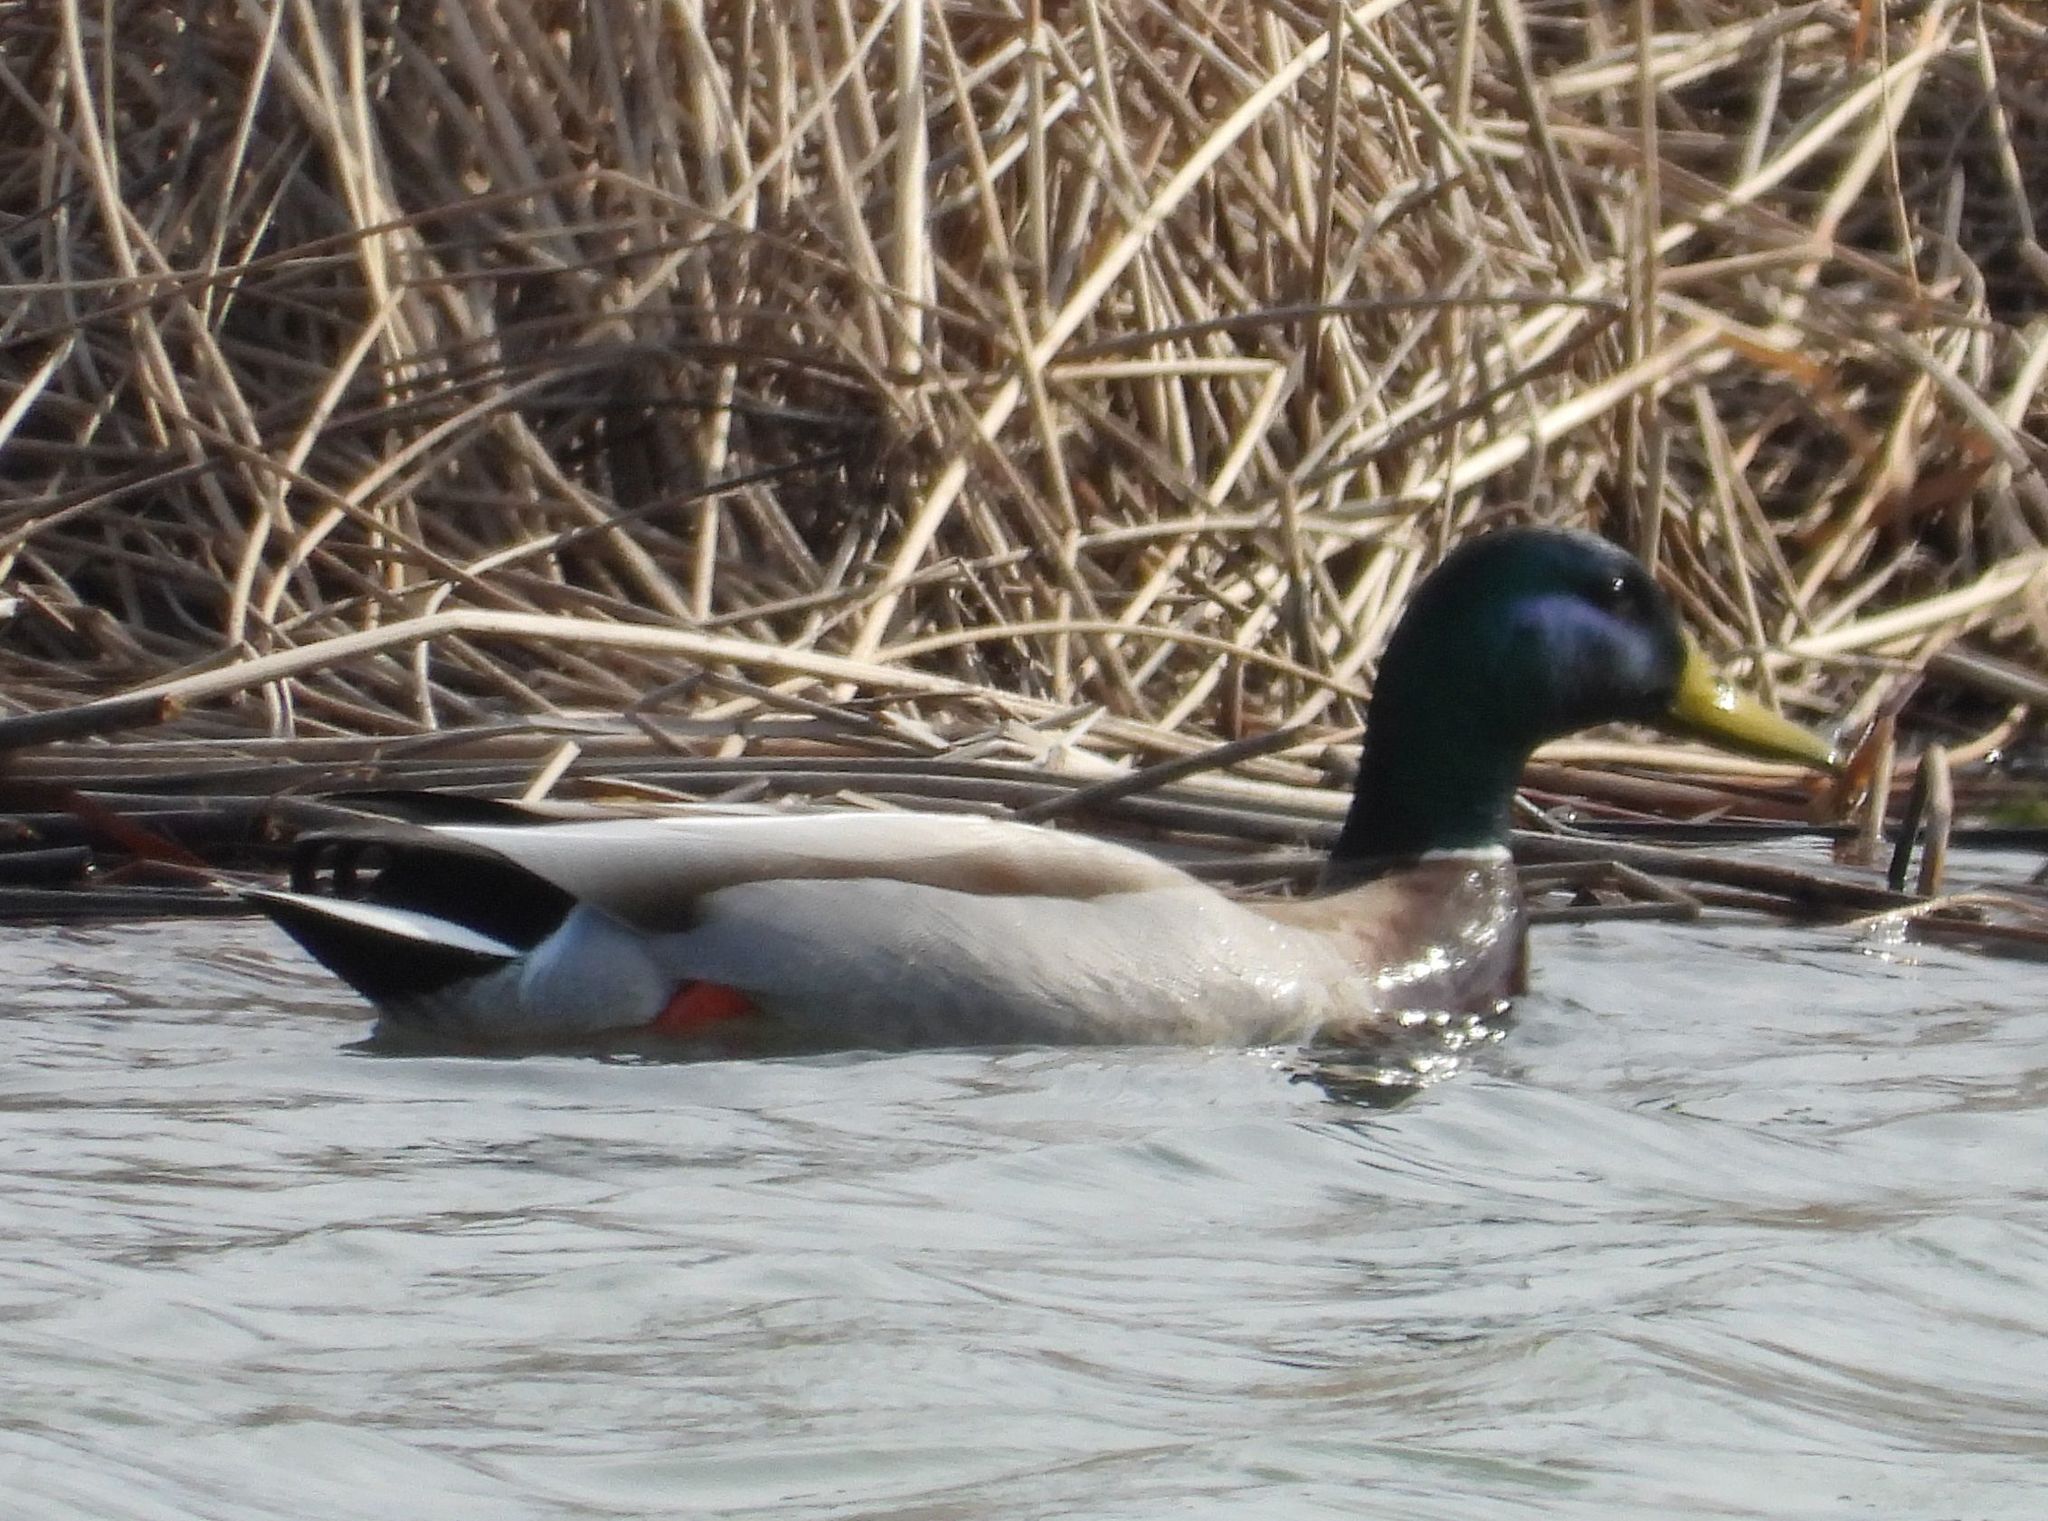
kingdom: Animalia
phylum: Chordata
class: Aves
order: Anseriformes
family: Anatidae
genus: Anas
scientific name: Anas platyrhynchos
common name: Mallard
